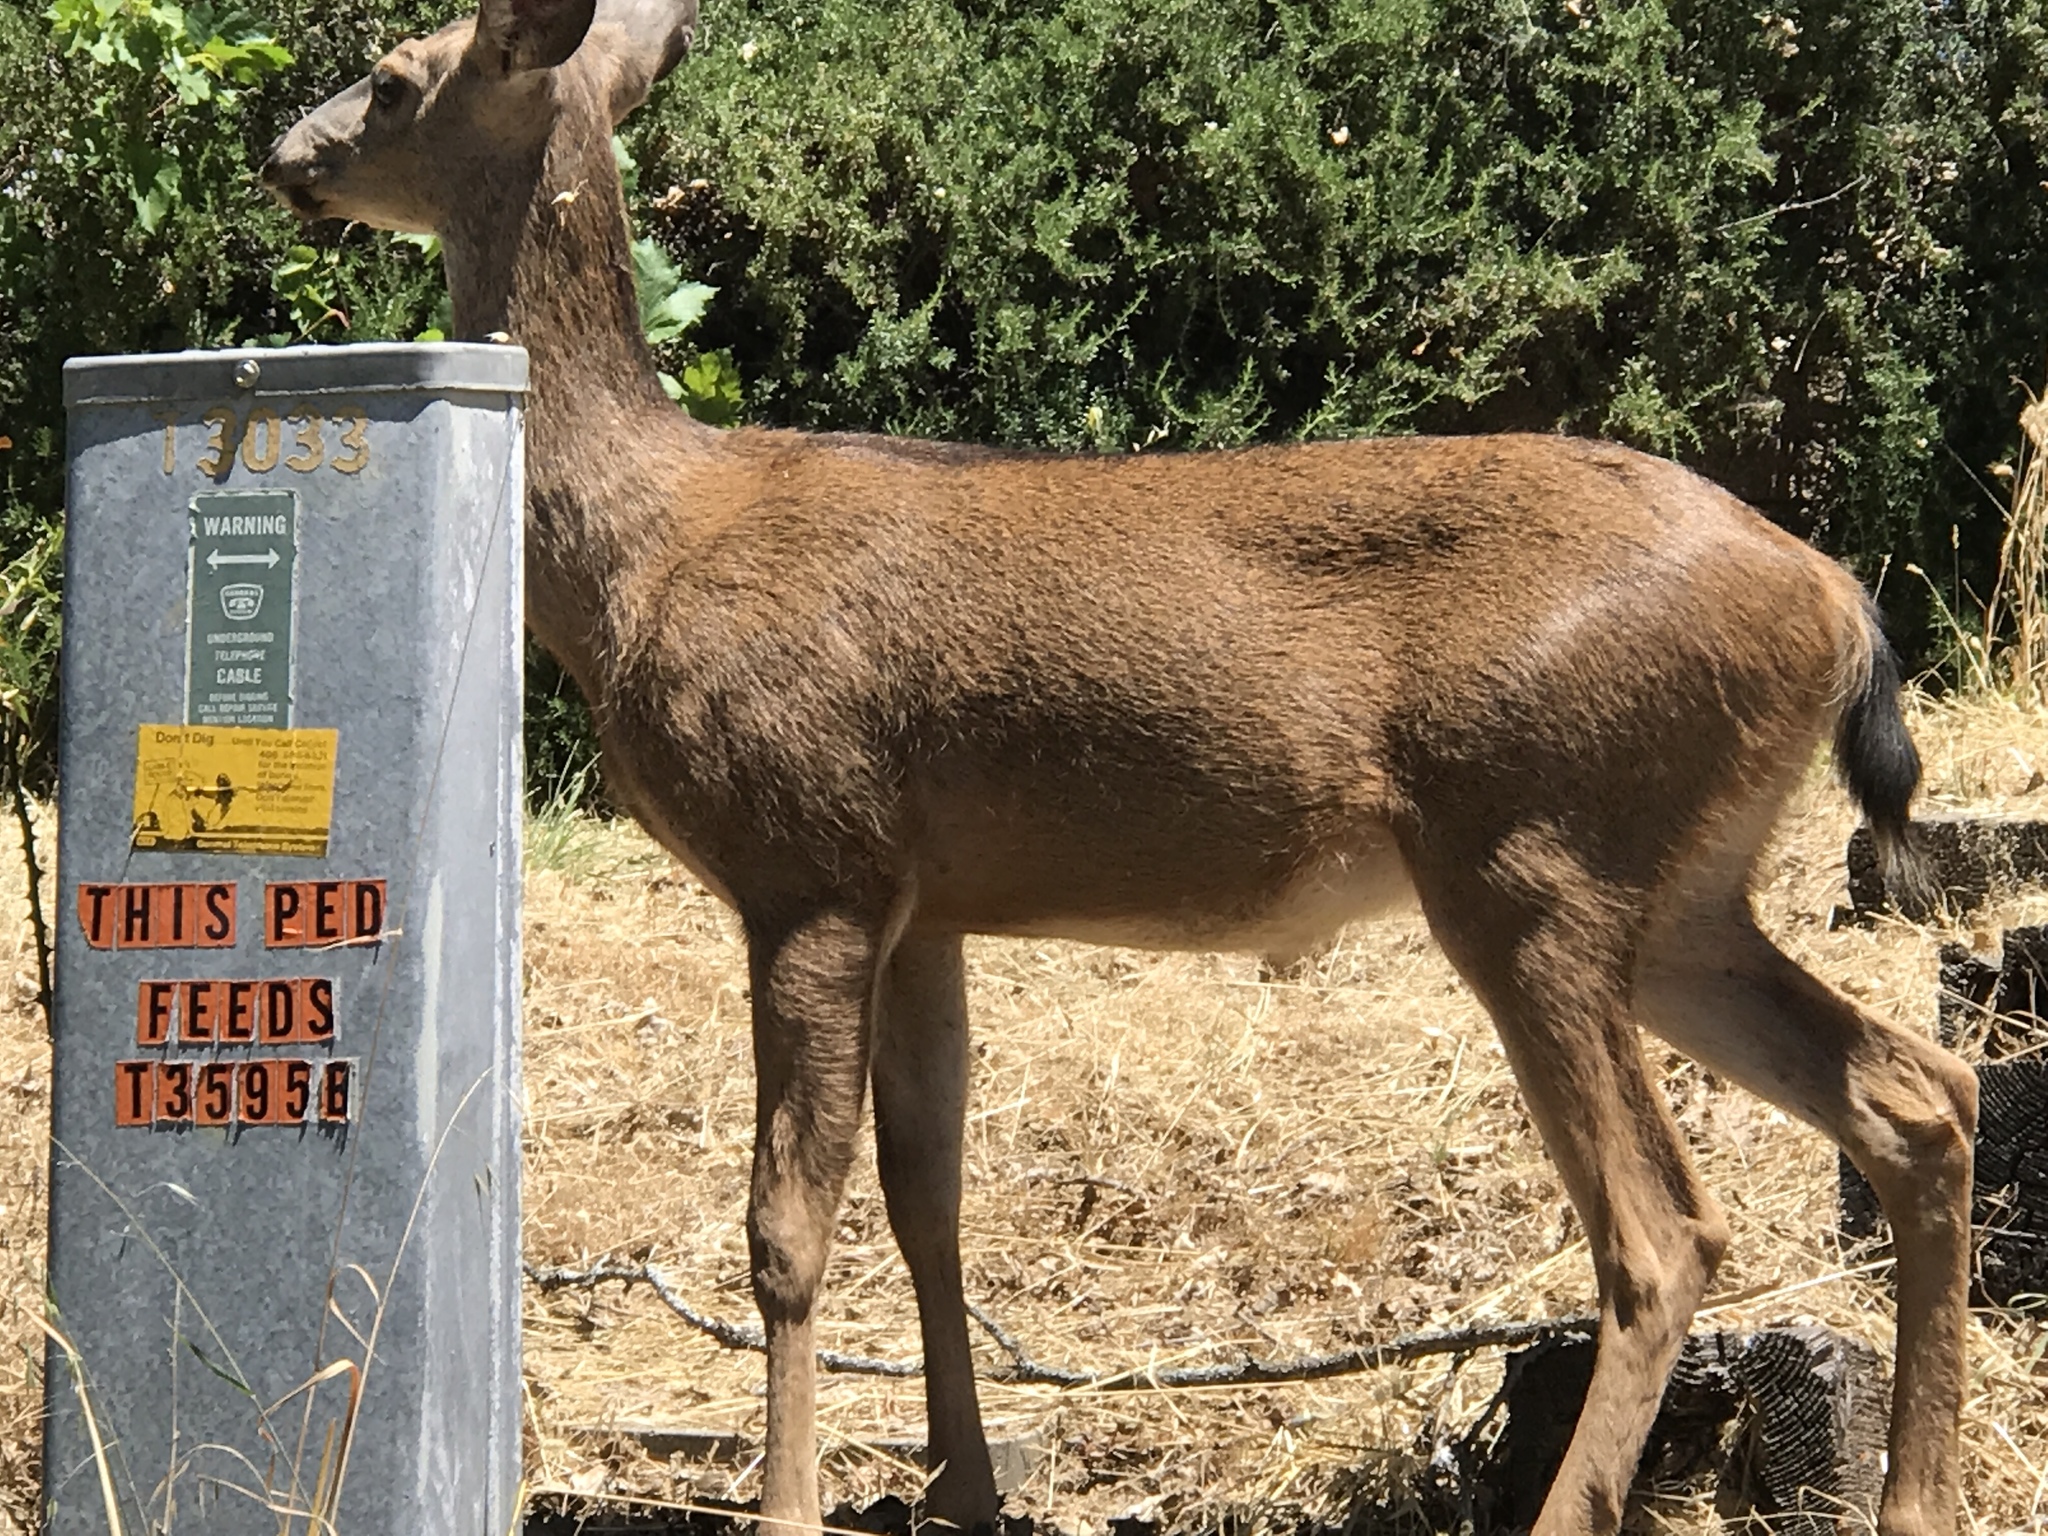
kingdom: Animalia
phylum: Chordata
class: Mammalia
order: Artiodactyla
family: Cervidae
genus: Odocoileus
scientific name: Odocoileus hemionus
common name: Mule deer
